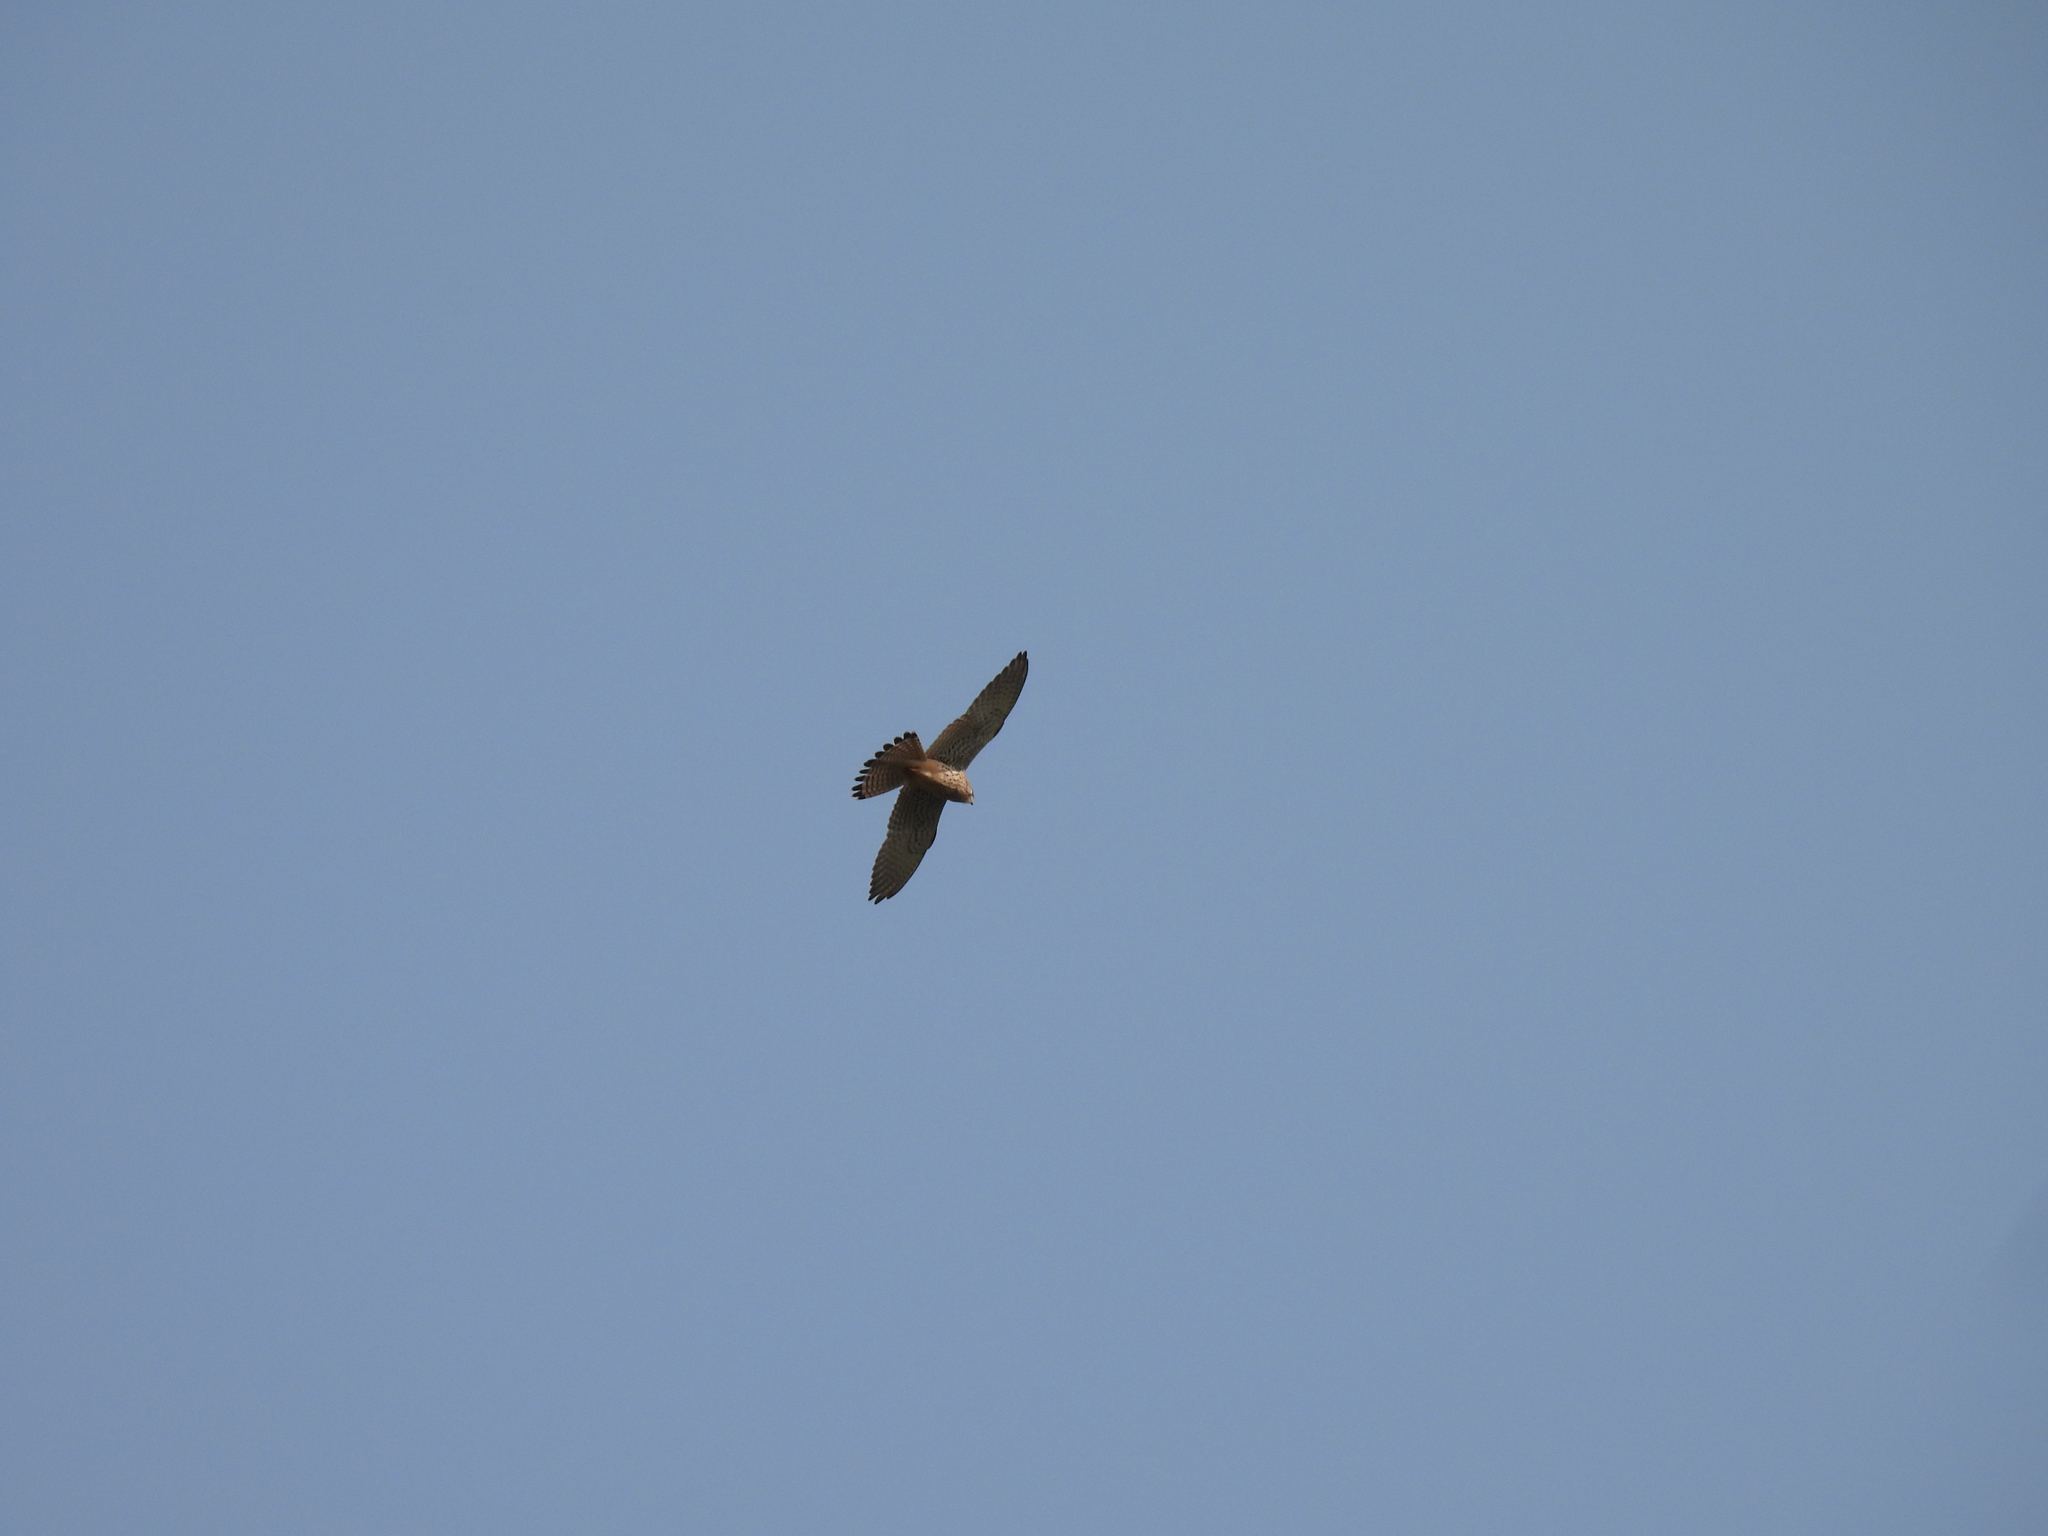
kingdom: Animalia
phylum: Chordata
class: Aves
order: Falconiformes
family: Falconidae
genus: Falco
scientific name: Falco tinnunculus
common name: Common kestrel
